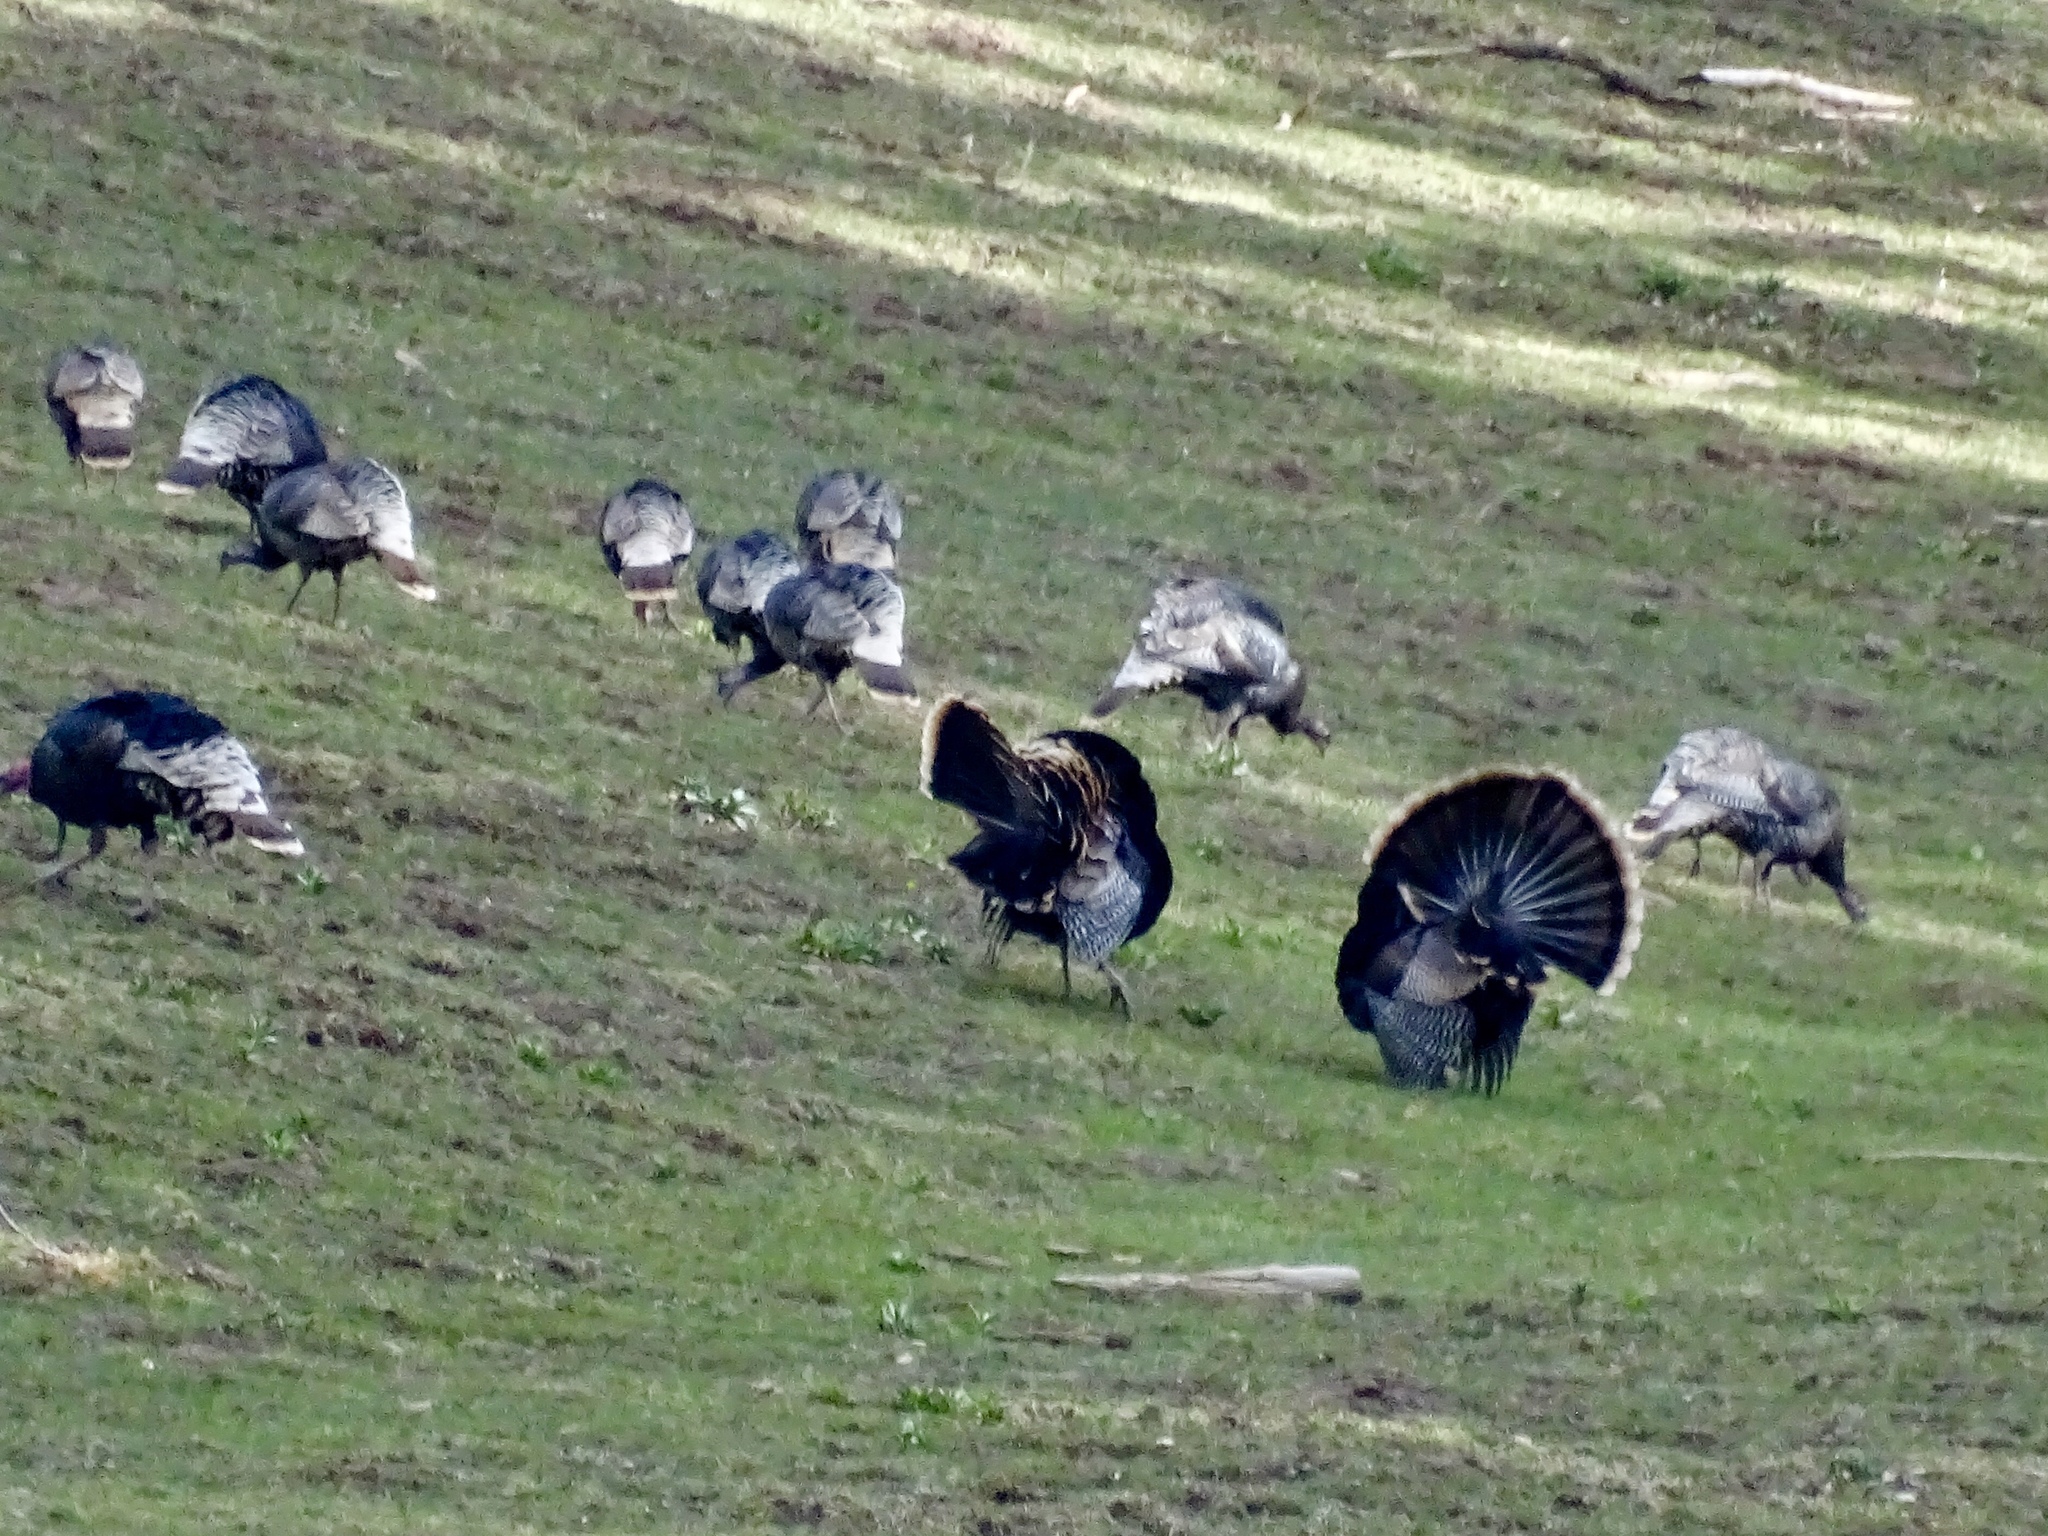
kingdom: Animalia
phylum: Chordata
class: Aves
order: Galliformes
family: Phasianidae
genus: Meleagris
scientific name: Meleagris gallopavo
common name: Wild turkey
